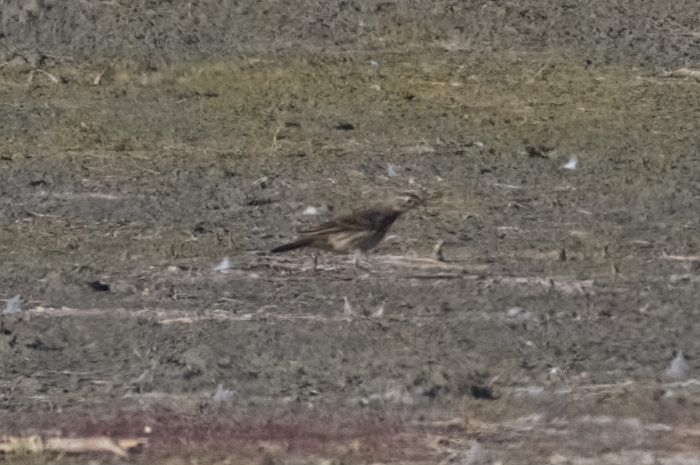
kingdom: Animalia
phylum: Chordata
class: Aves
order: Passeriformes
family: Motacillidae
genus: Anthus
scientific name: Anthus rubescens
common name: Buff-bellied pipit
